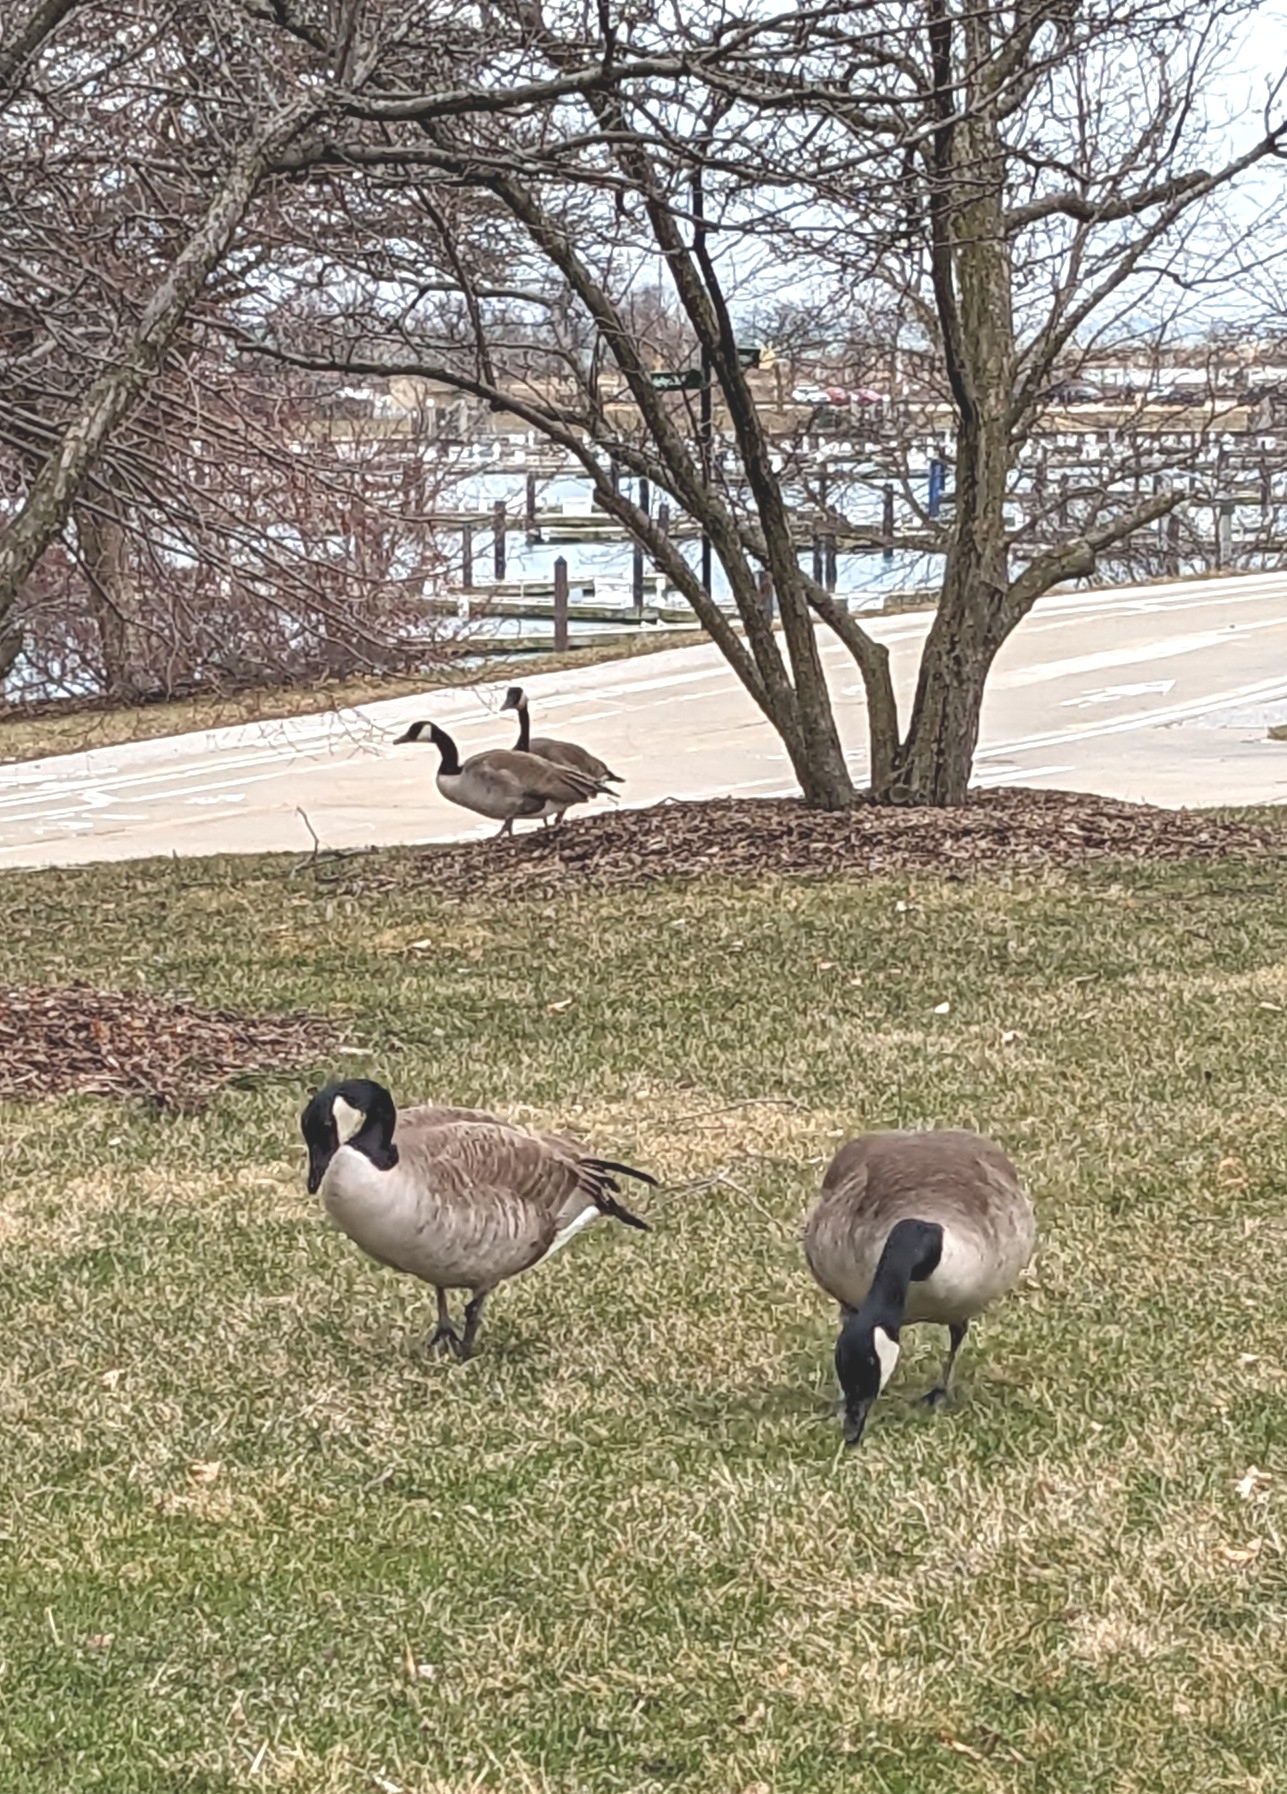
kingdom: Animalia
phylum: Chordata
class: Aves
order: Anseriformes
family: Anatidae
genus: Branta
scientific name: Branta canadensis
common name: Canada goose
